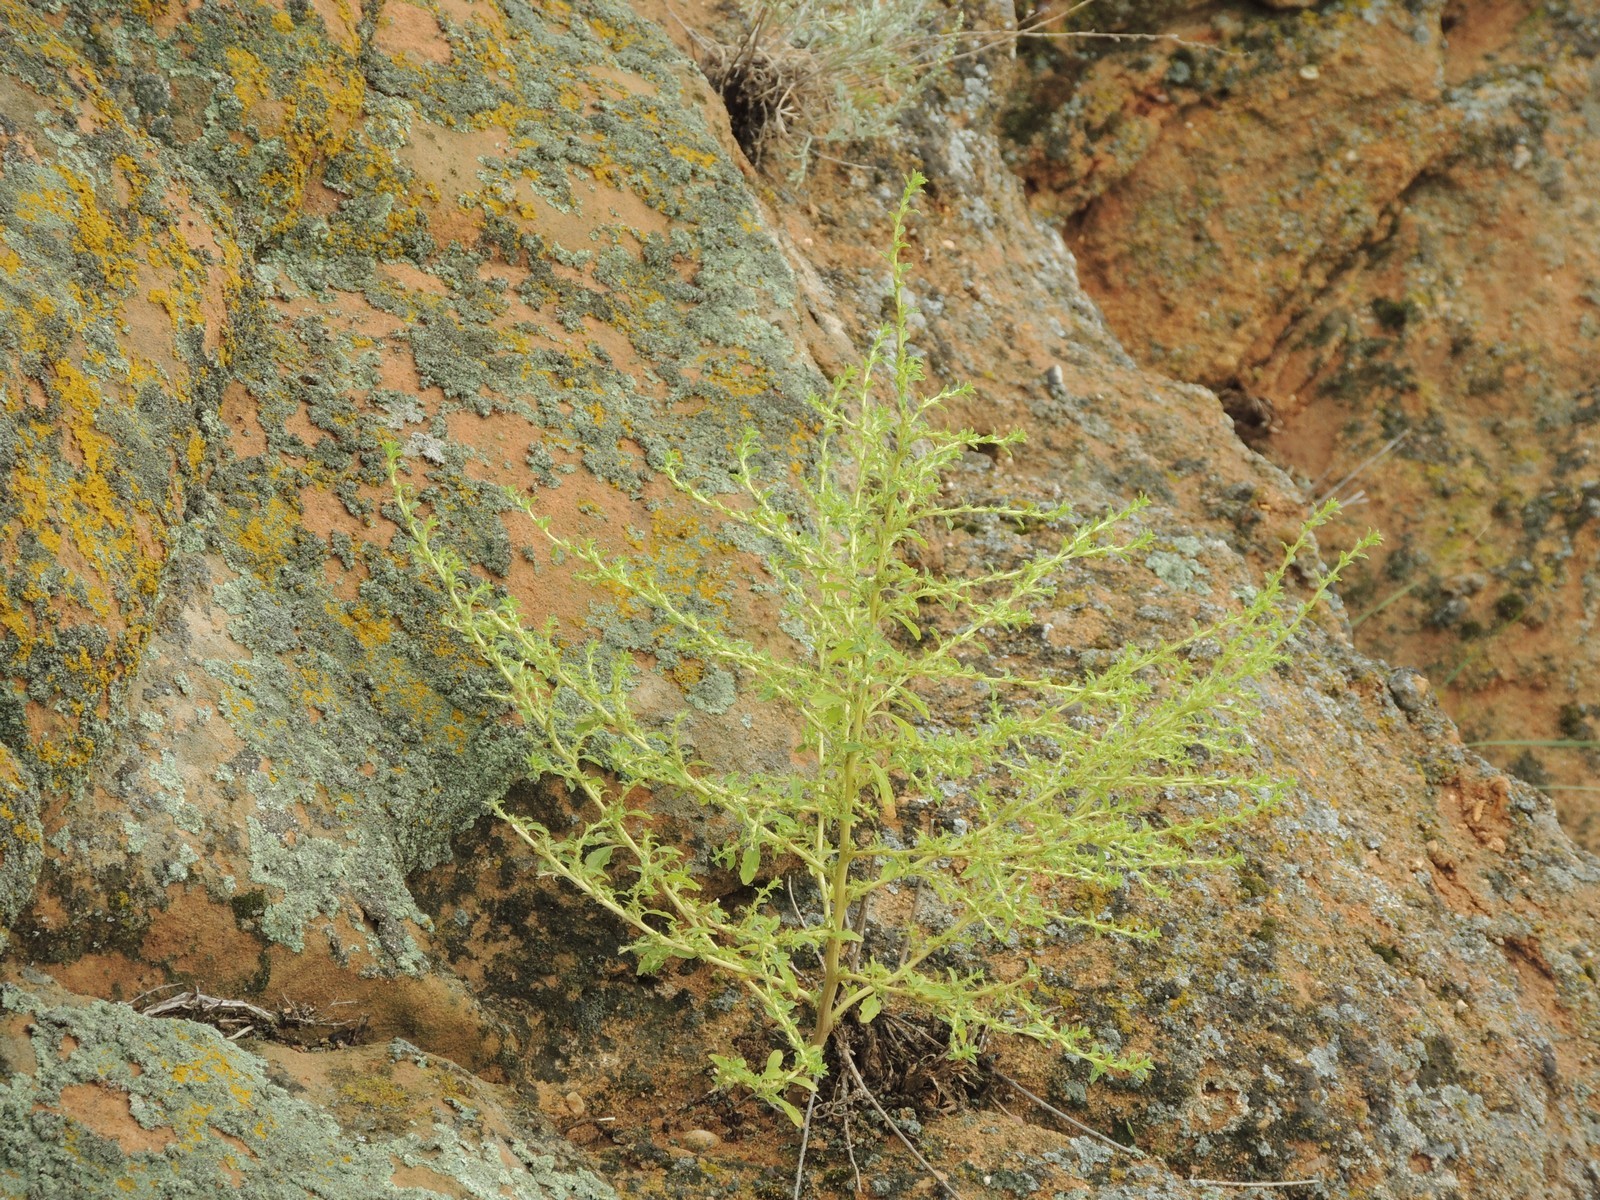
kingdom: Plantae
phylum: Tracheophyta
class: Magnoliopsida
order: Caryophyllales
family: Amaranthaceae
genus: Amaranthus
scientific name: Amaranthus albus
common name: White pigweed
